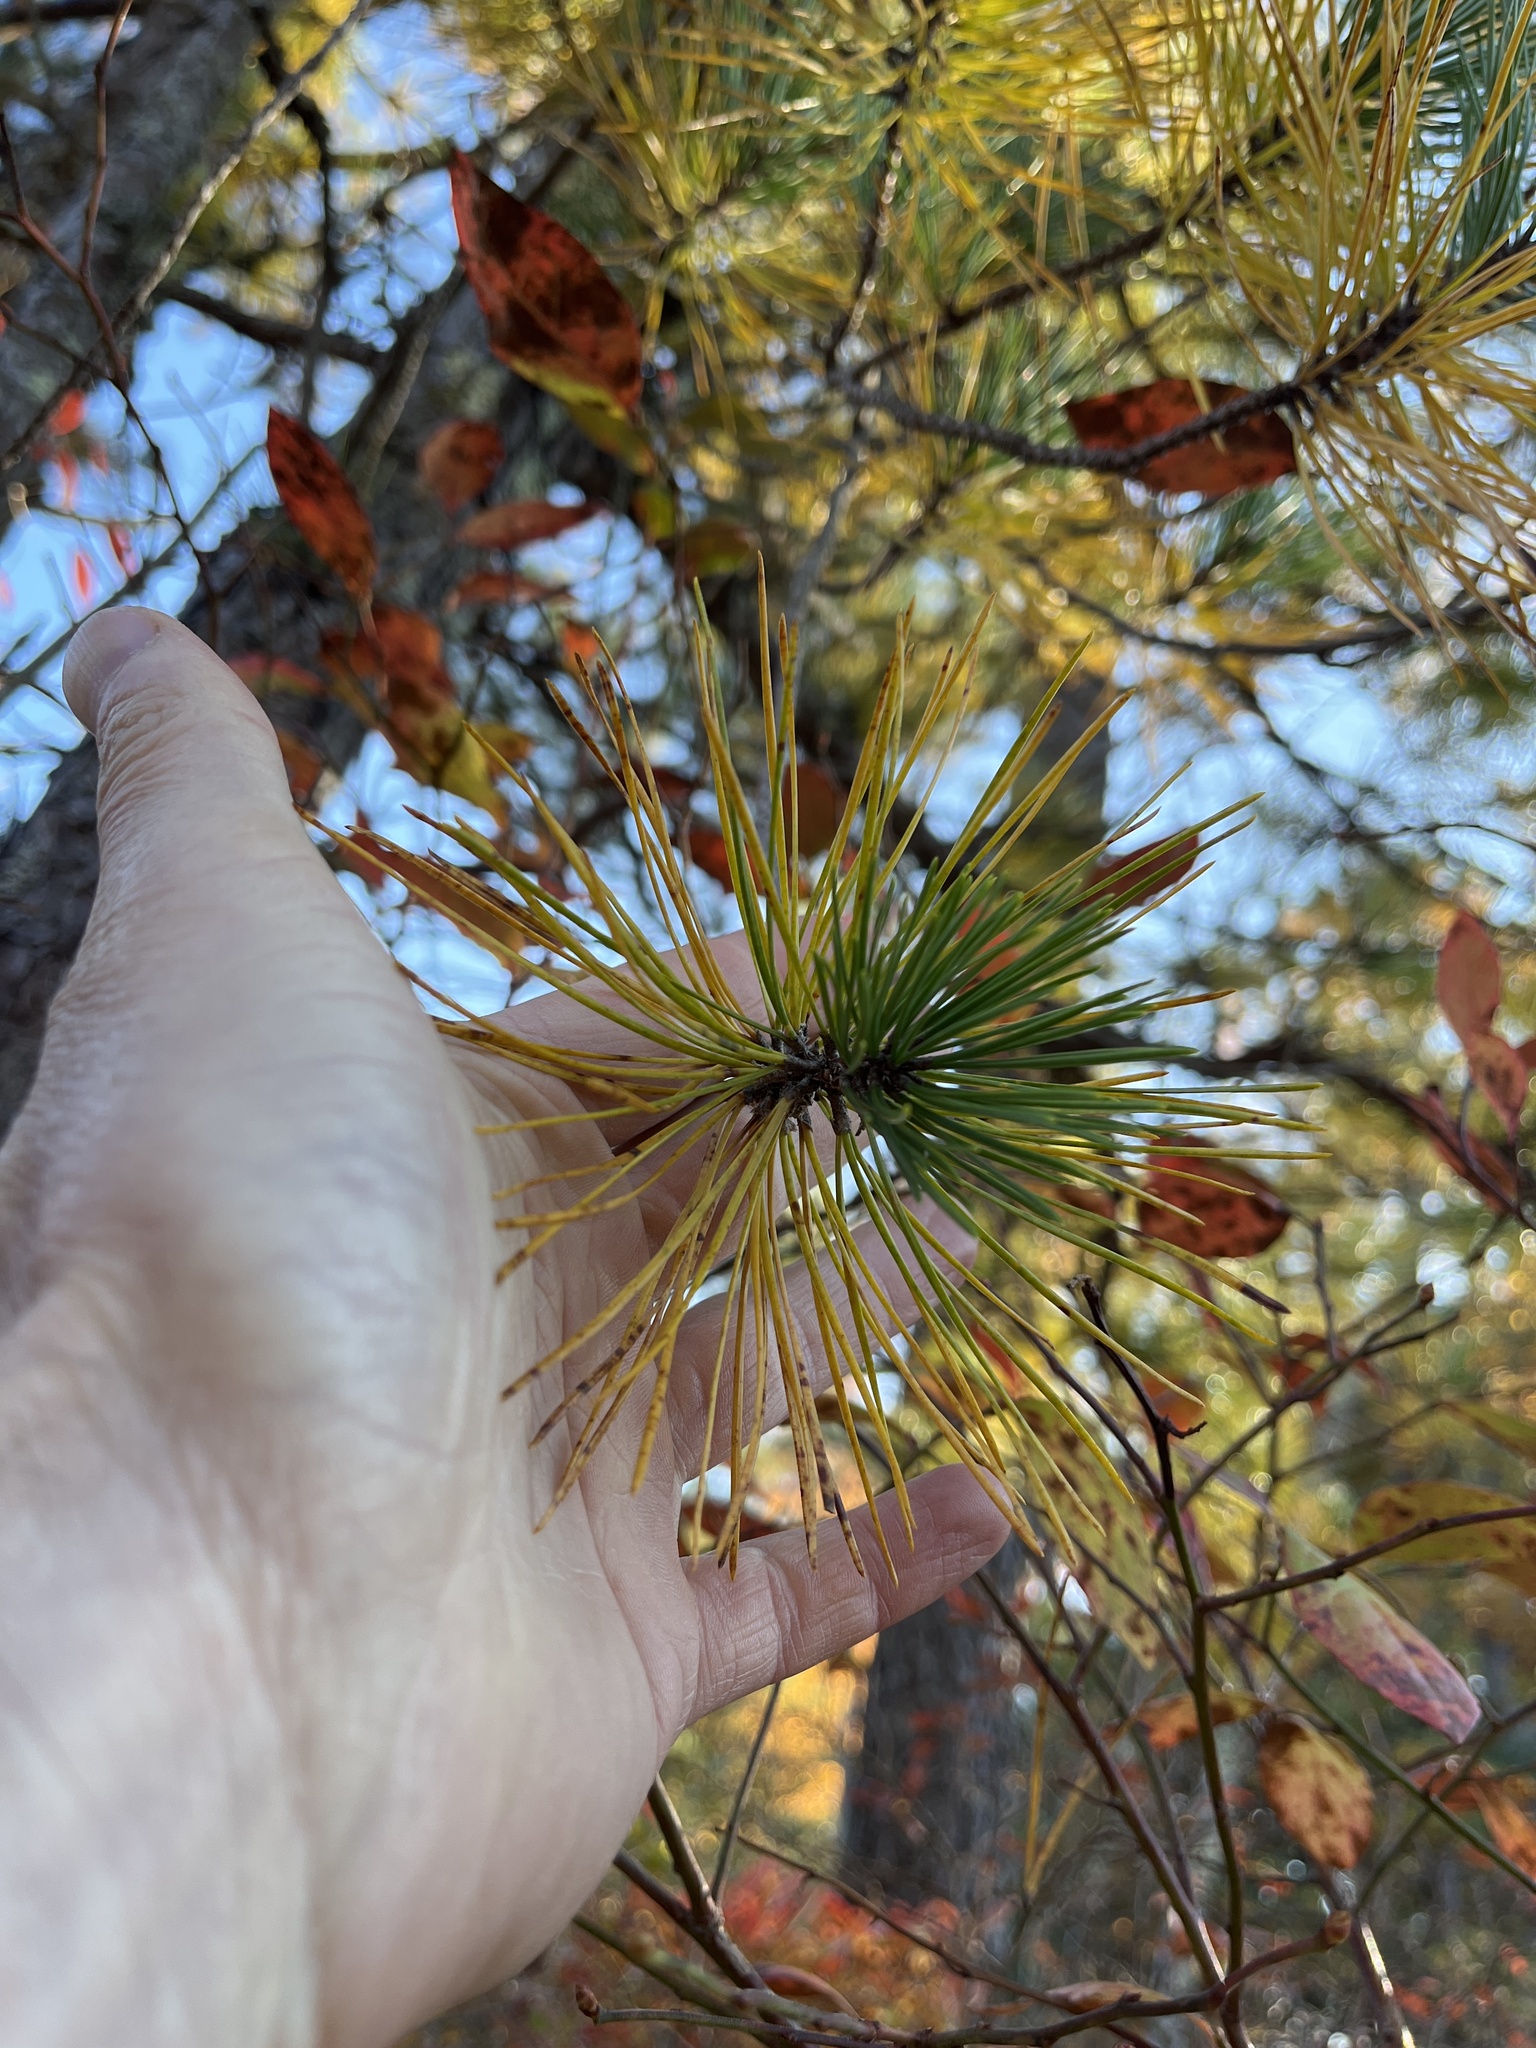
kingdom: Plantae
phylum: Tracheophyta
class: Pinopsida
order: Pinales
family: Pinaceae
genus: Pinus
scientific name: Pinus rigida
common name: Pitch pine
